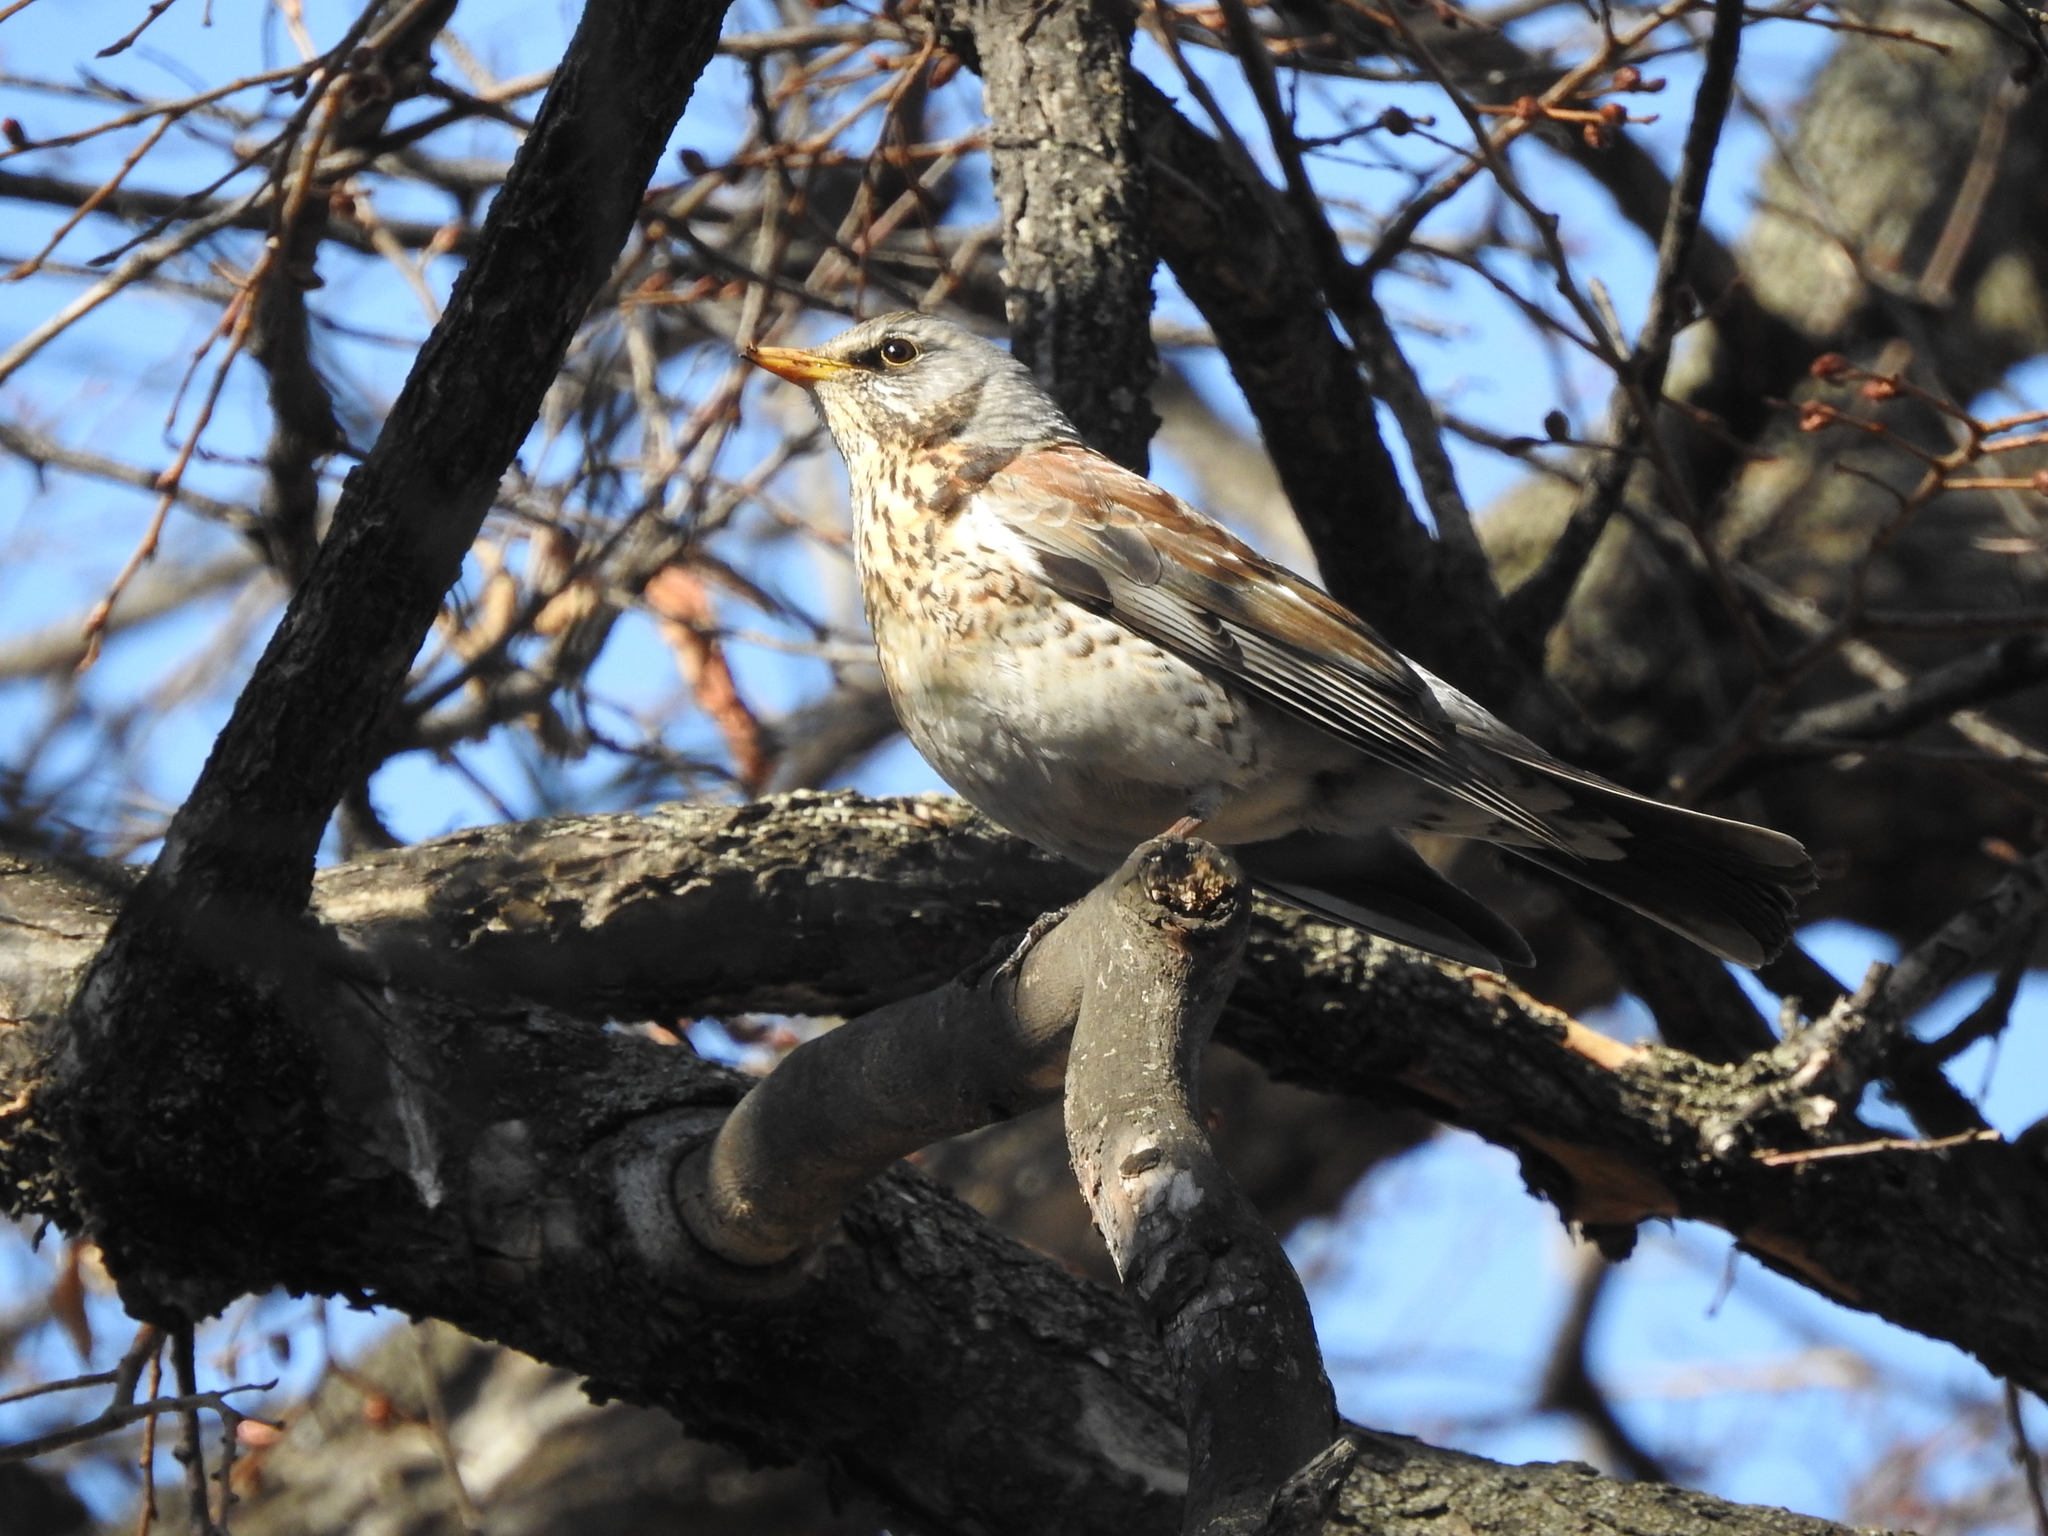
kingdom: Animalia
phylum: Chordata
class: Aves
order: Passeriformes
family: Turdidae
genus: Turdus
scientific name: Turdus pilaris
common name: Fieldfare
